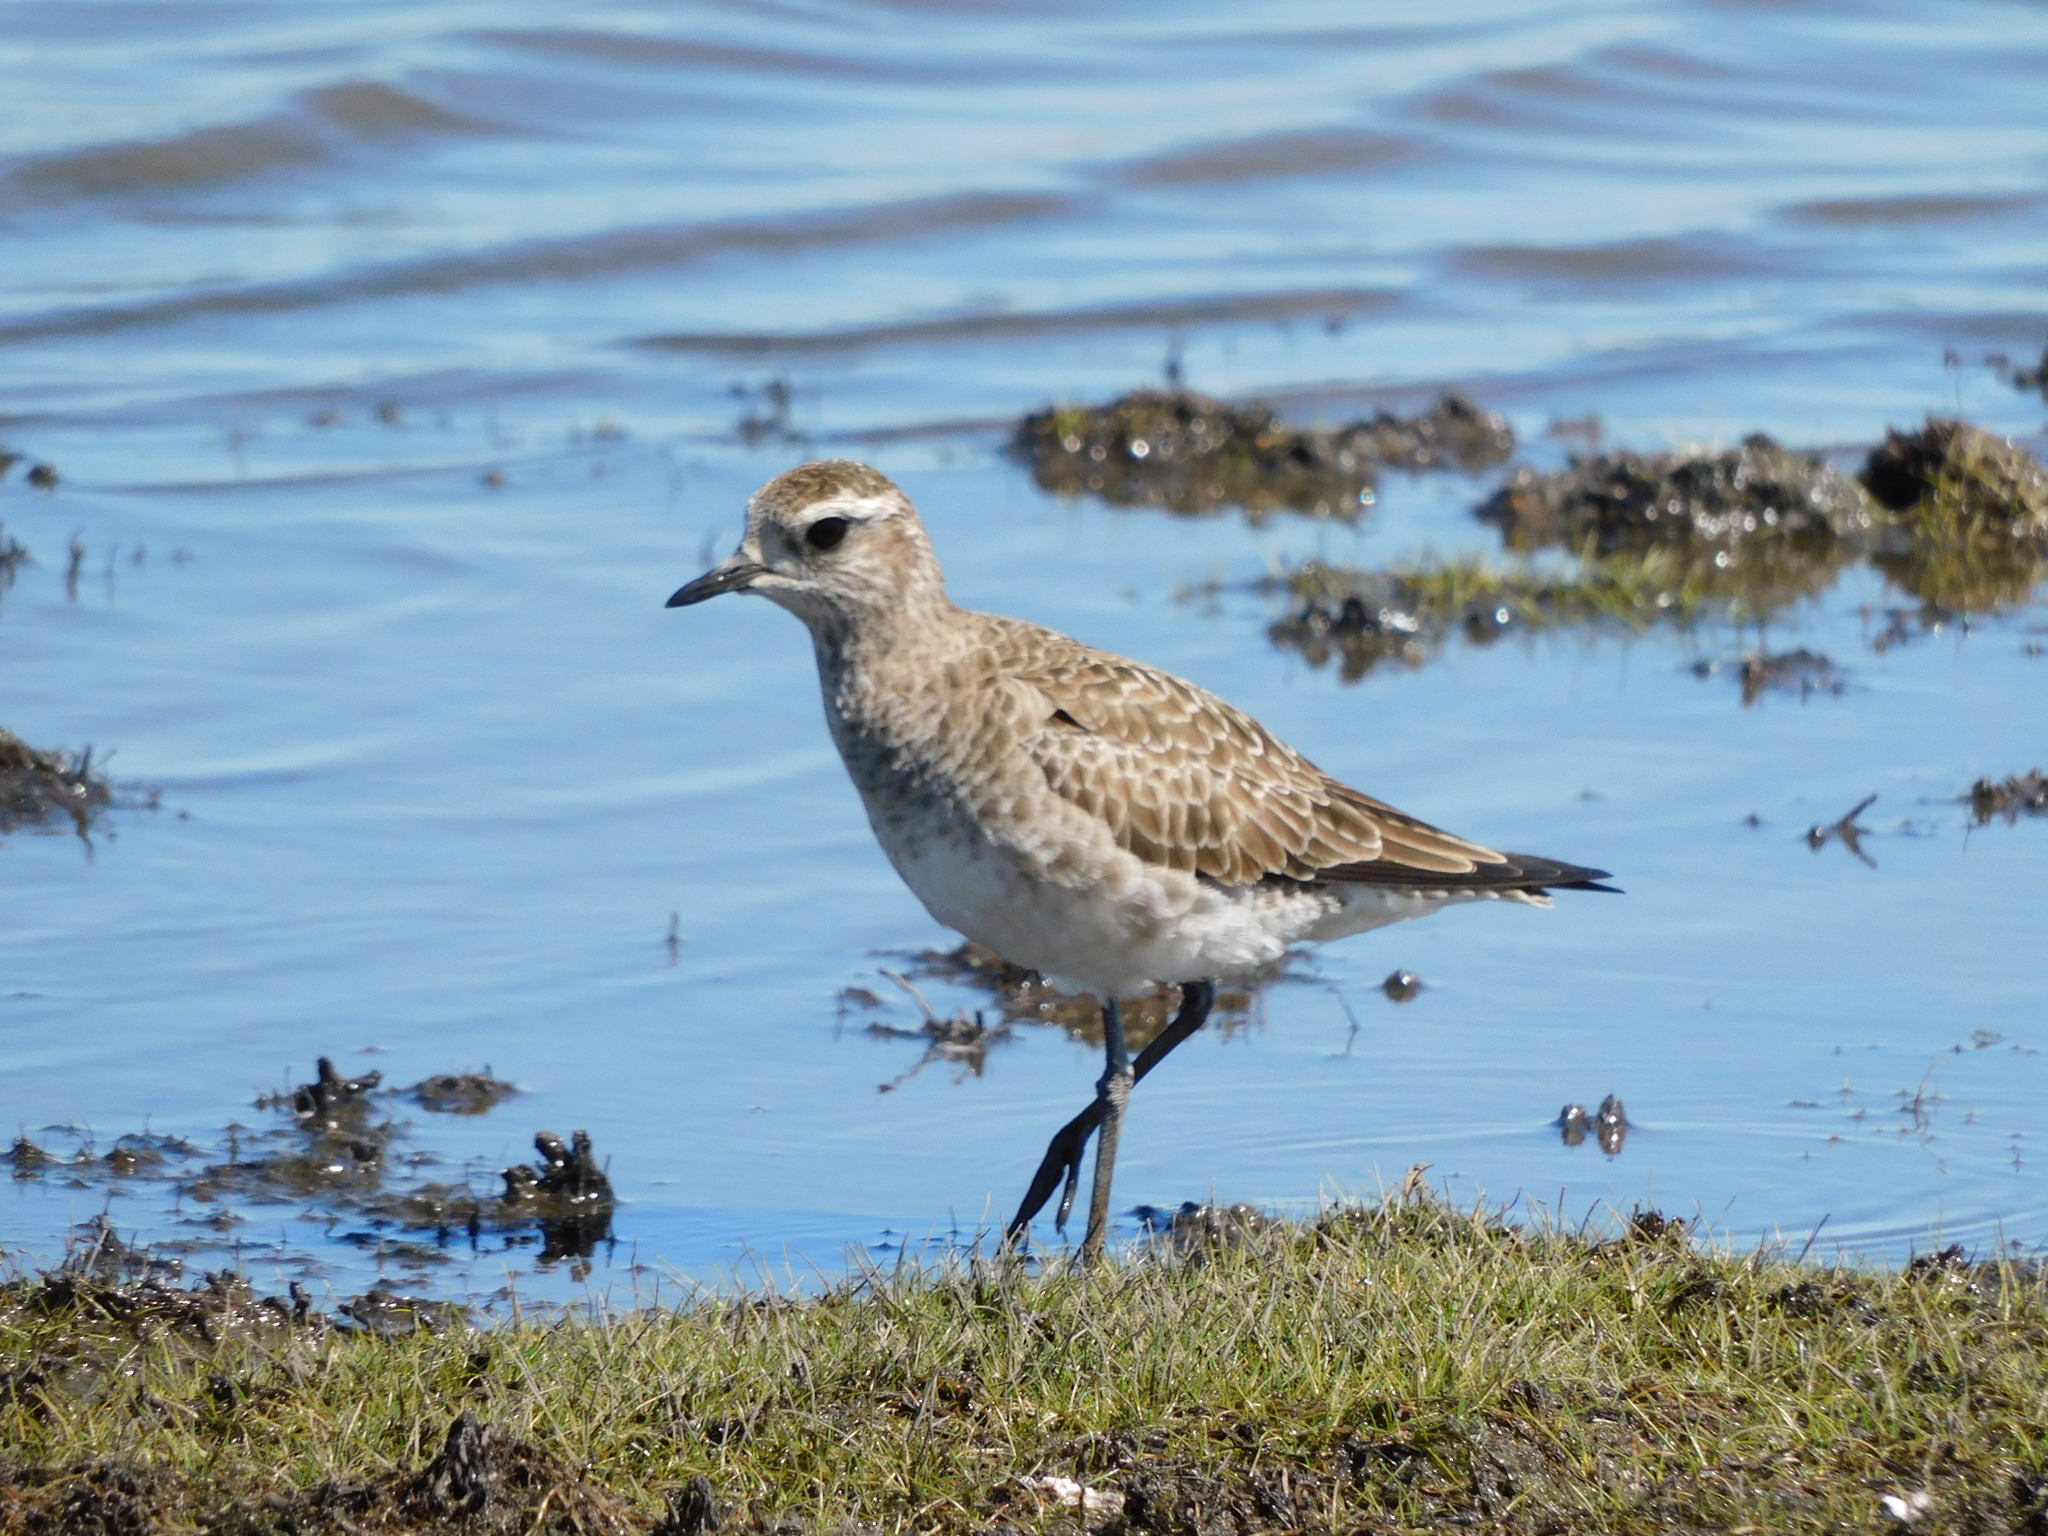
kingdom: Animalia
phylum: Chordata
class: Aves
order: Charadriiformes
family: Charadriidae
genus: Pluvialis
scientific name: Pluvialis dominica
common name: American golden plover
